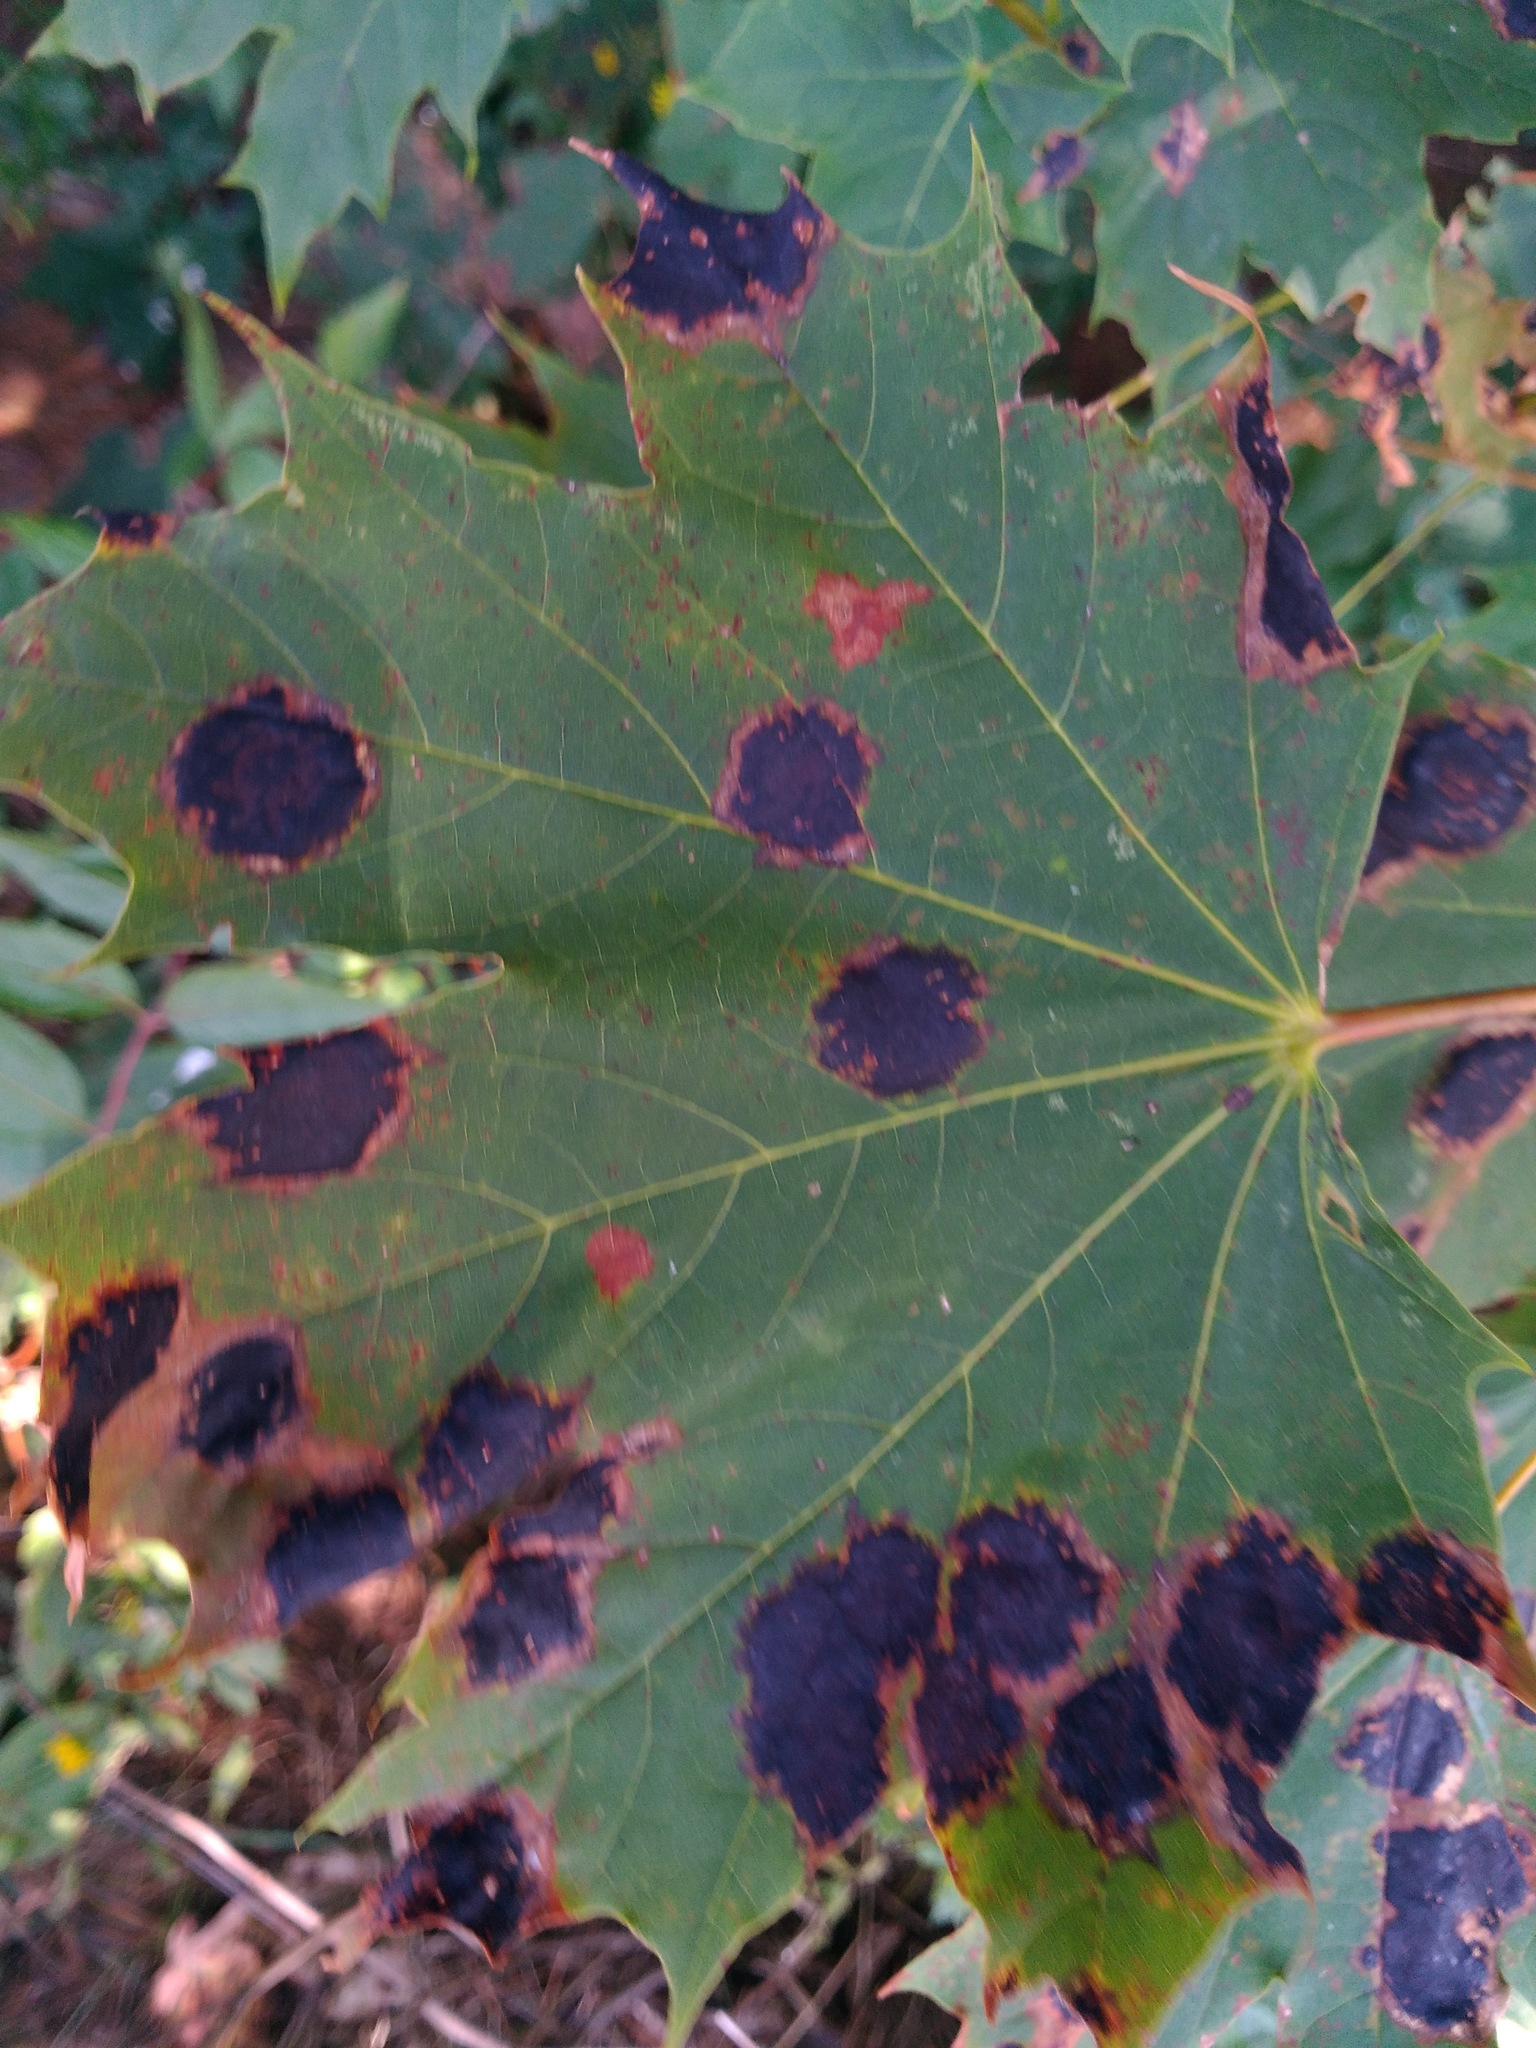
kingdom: Plantae
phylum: Tracheophyta
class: Magnoliopsida
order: Sapindales
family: Sapindaceae
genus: Acer
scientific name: Acer platanoides
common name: Norway maple
